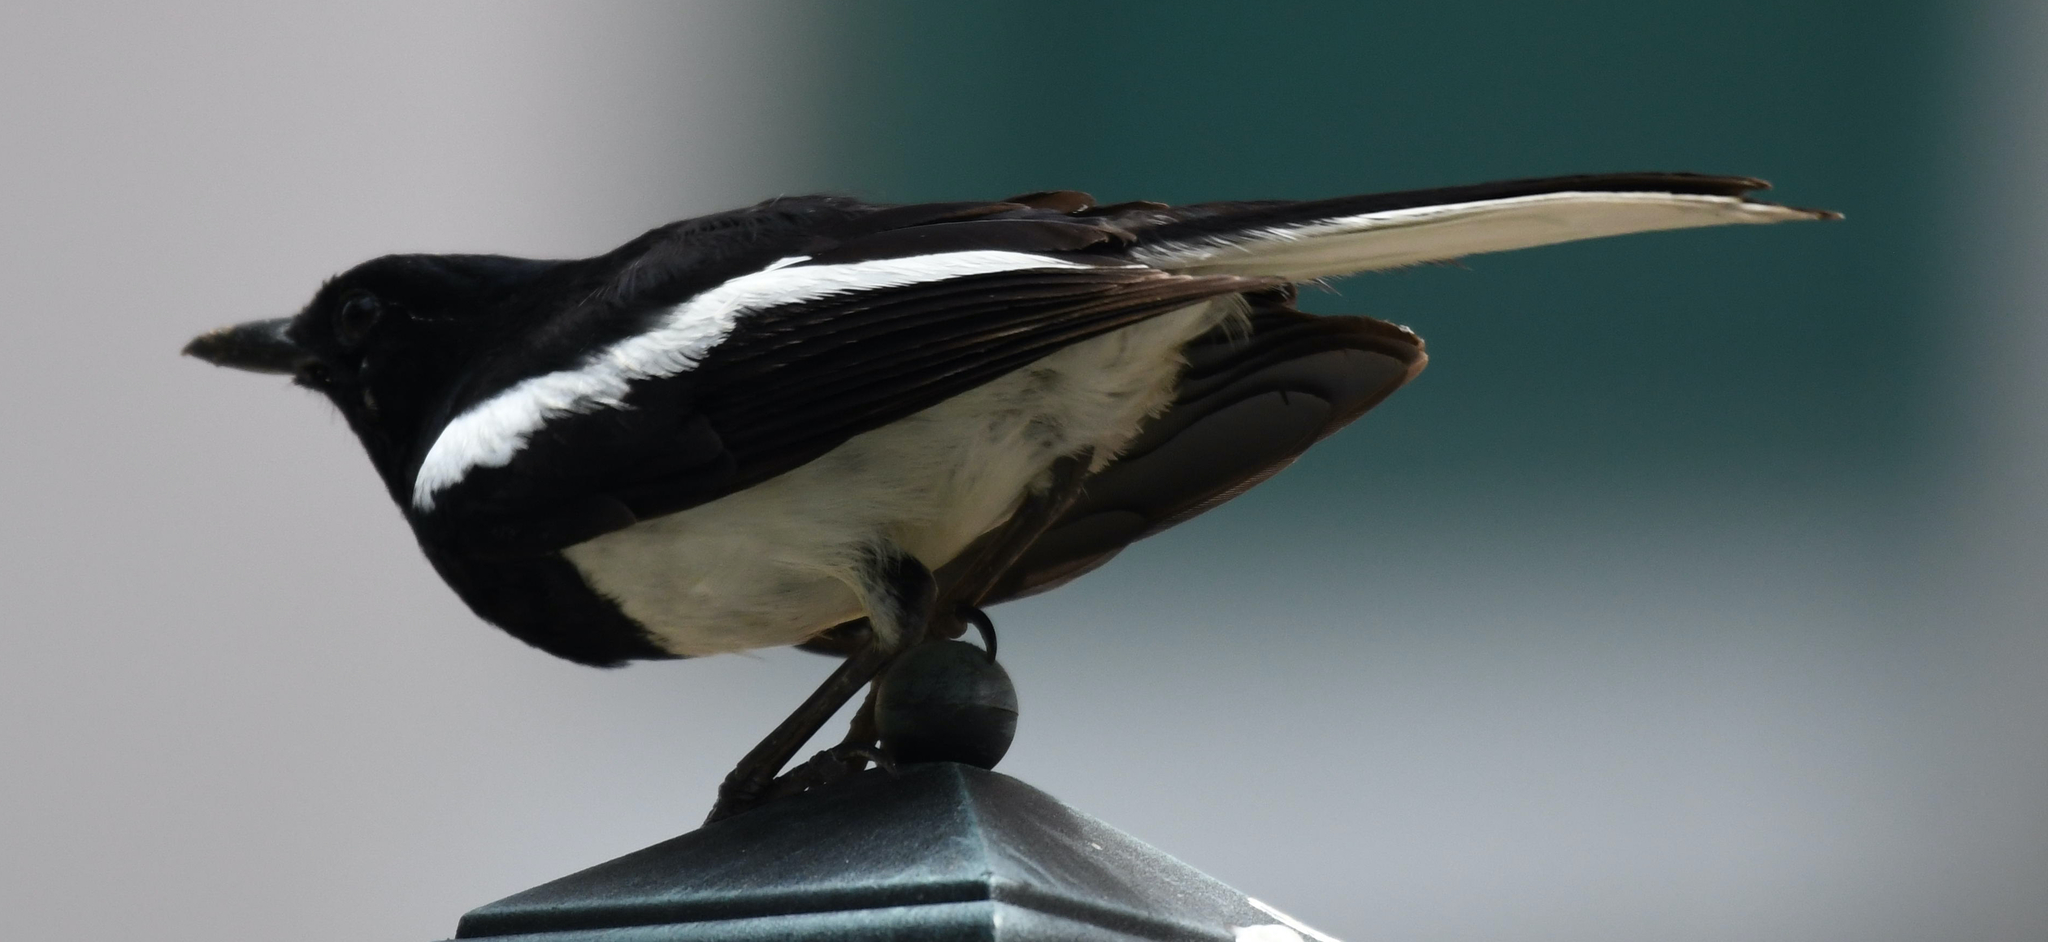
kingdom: Animalia
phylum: Chordata
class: Aves
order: Passeriformes
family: Muscicapidae
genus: Copsychus
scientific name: Copsychus saularis
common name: Oriental magpie-robin
